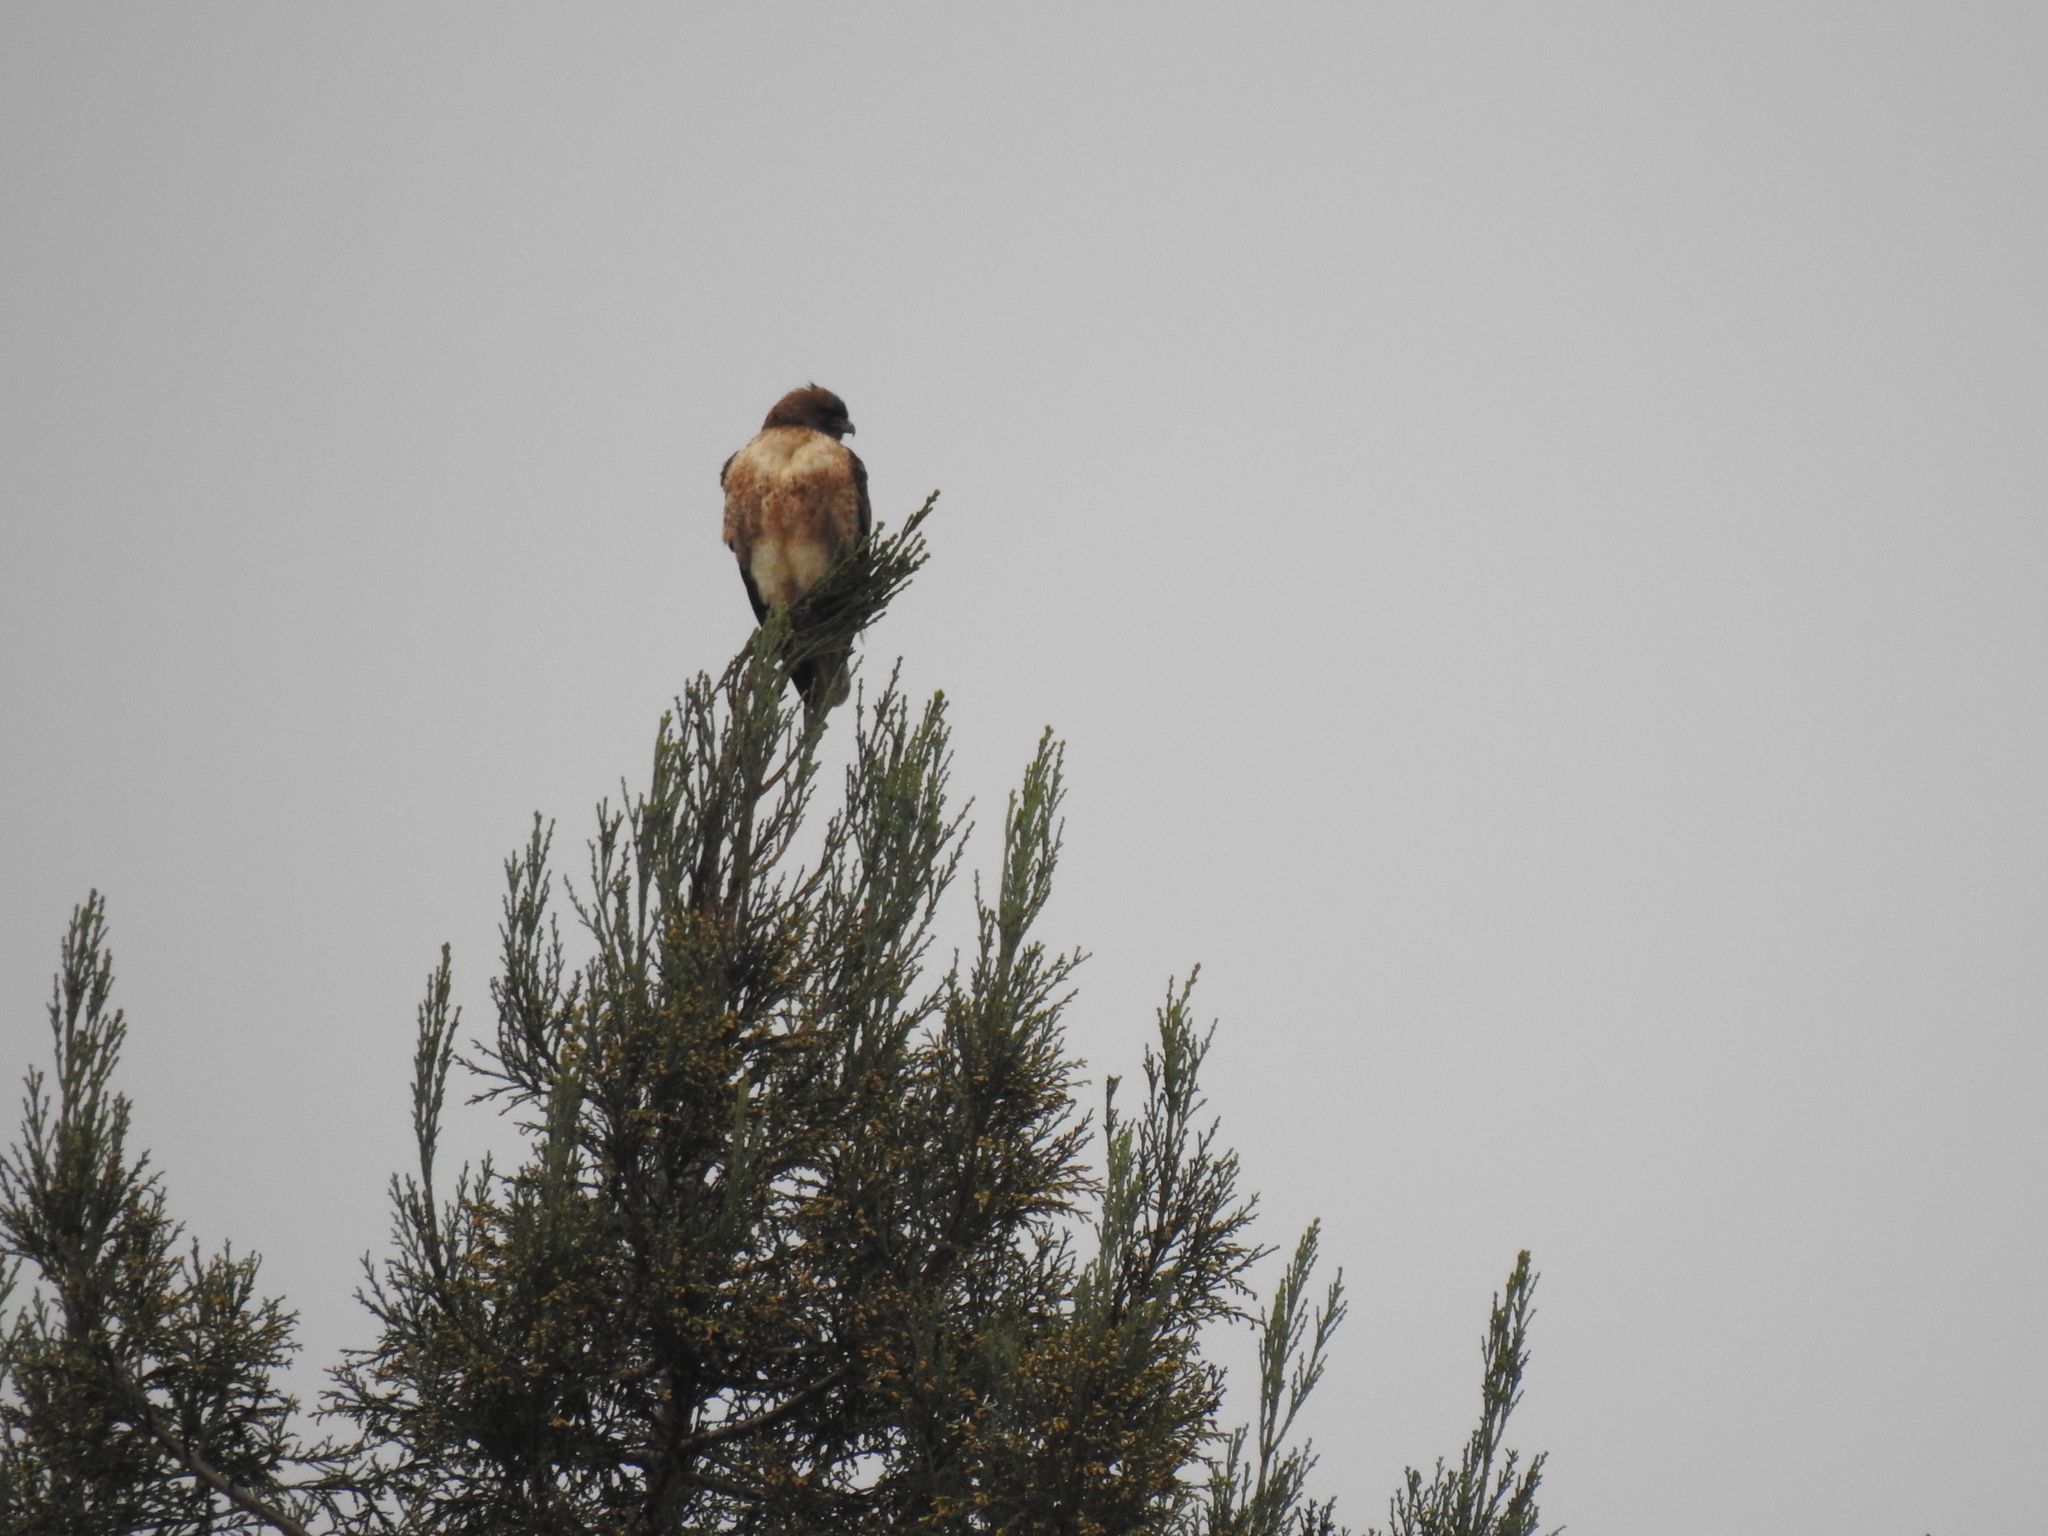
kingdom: Animalia
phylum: Chordata
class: Aves
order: Accipitriformes
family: Accipitridae
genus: Buteo
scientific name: Buteo jamaicensis
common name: Red-tailed hawk
